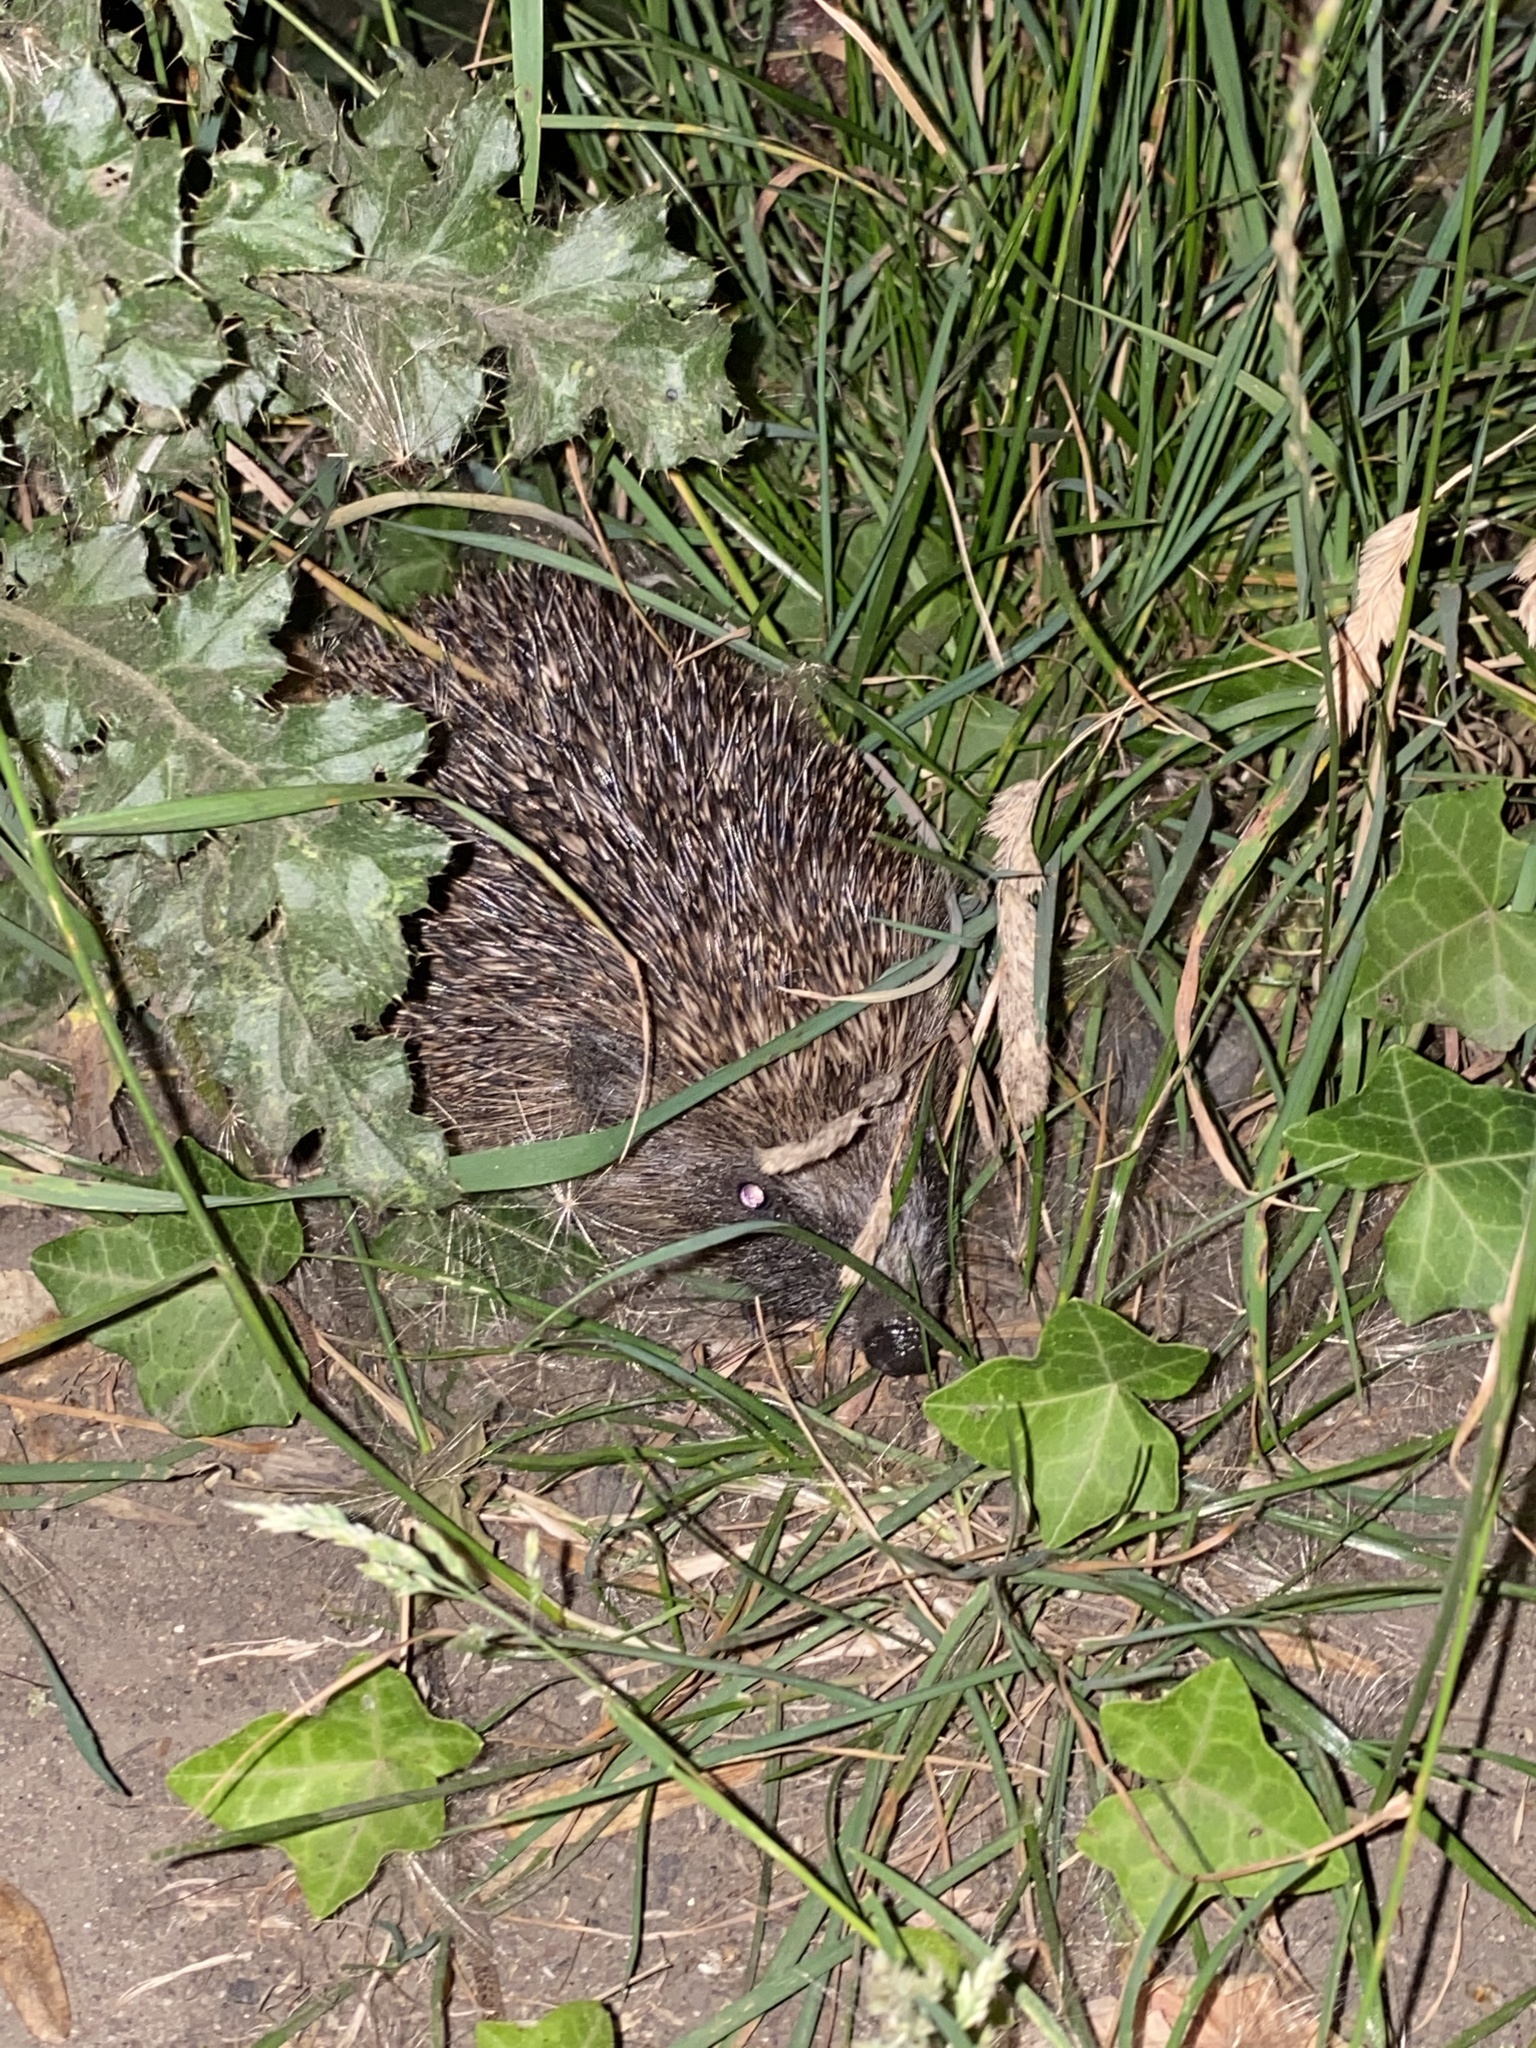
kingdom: Animalia
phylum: Chordata
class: Mammalia
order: Erinaceomorpha
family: Erinaceidae
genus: Erinaceus
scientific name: Erinaceus europaeus
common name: West european hedgehog
